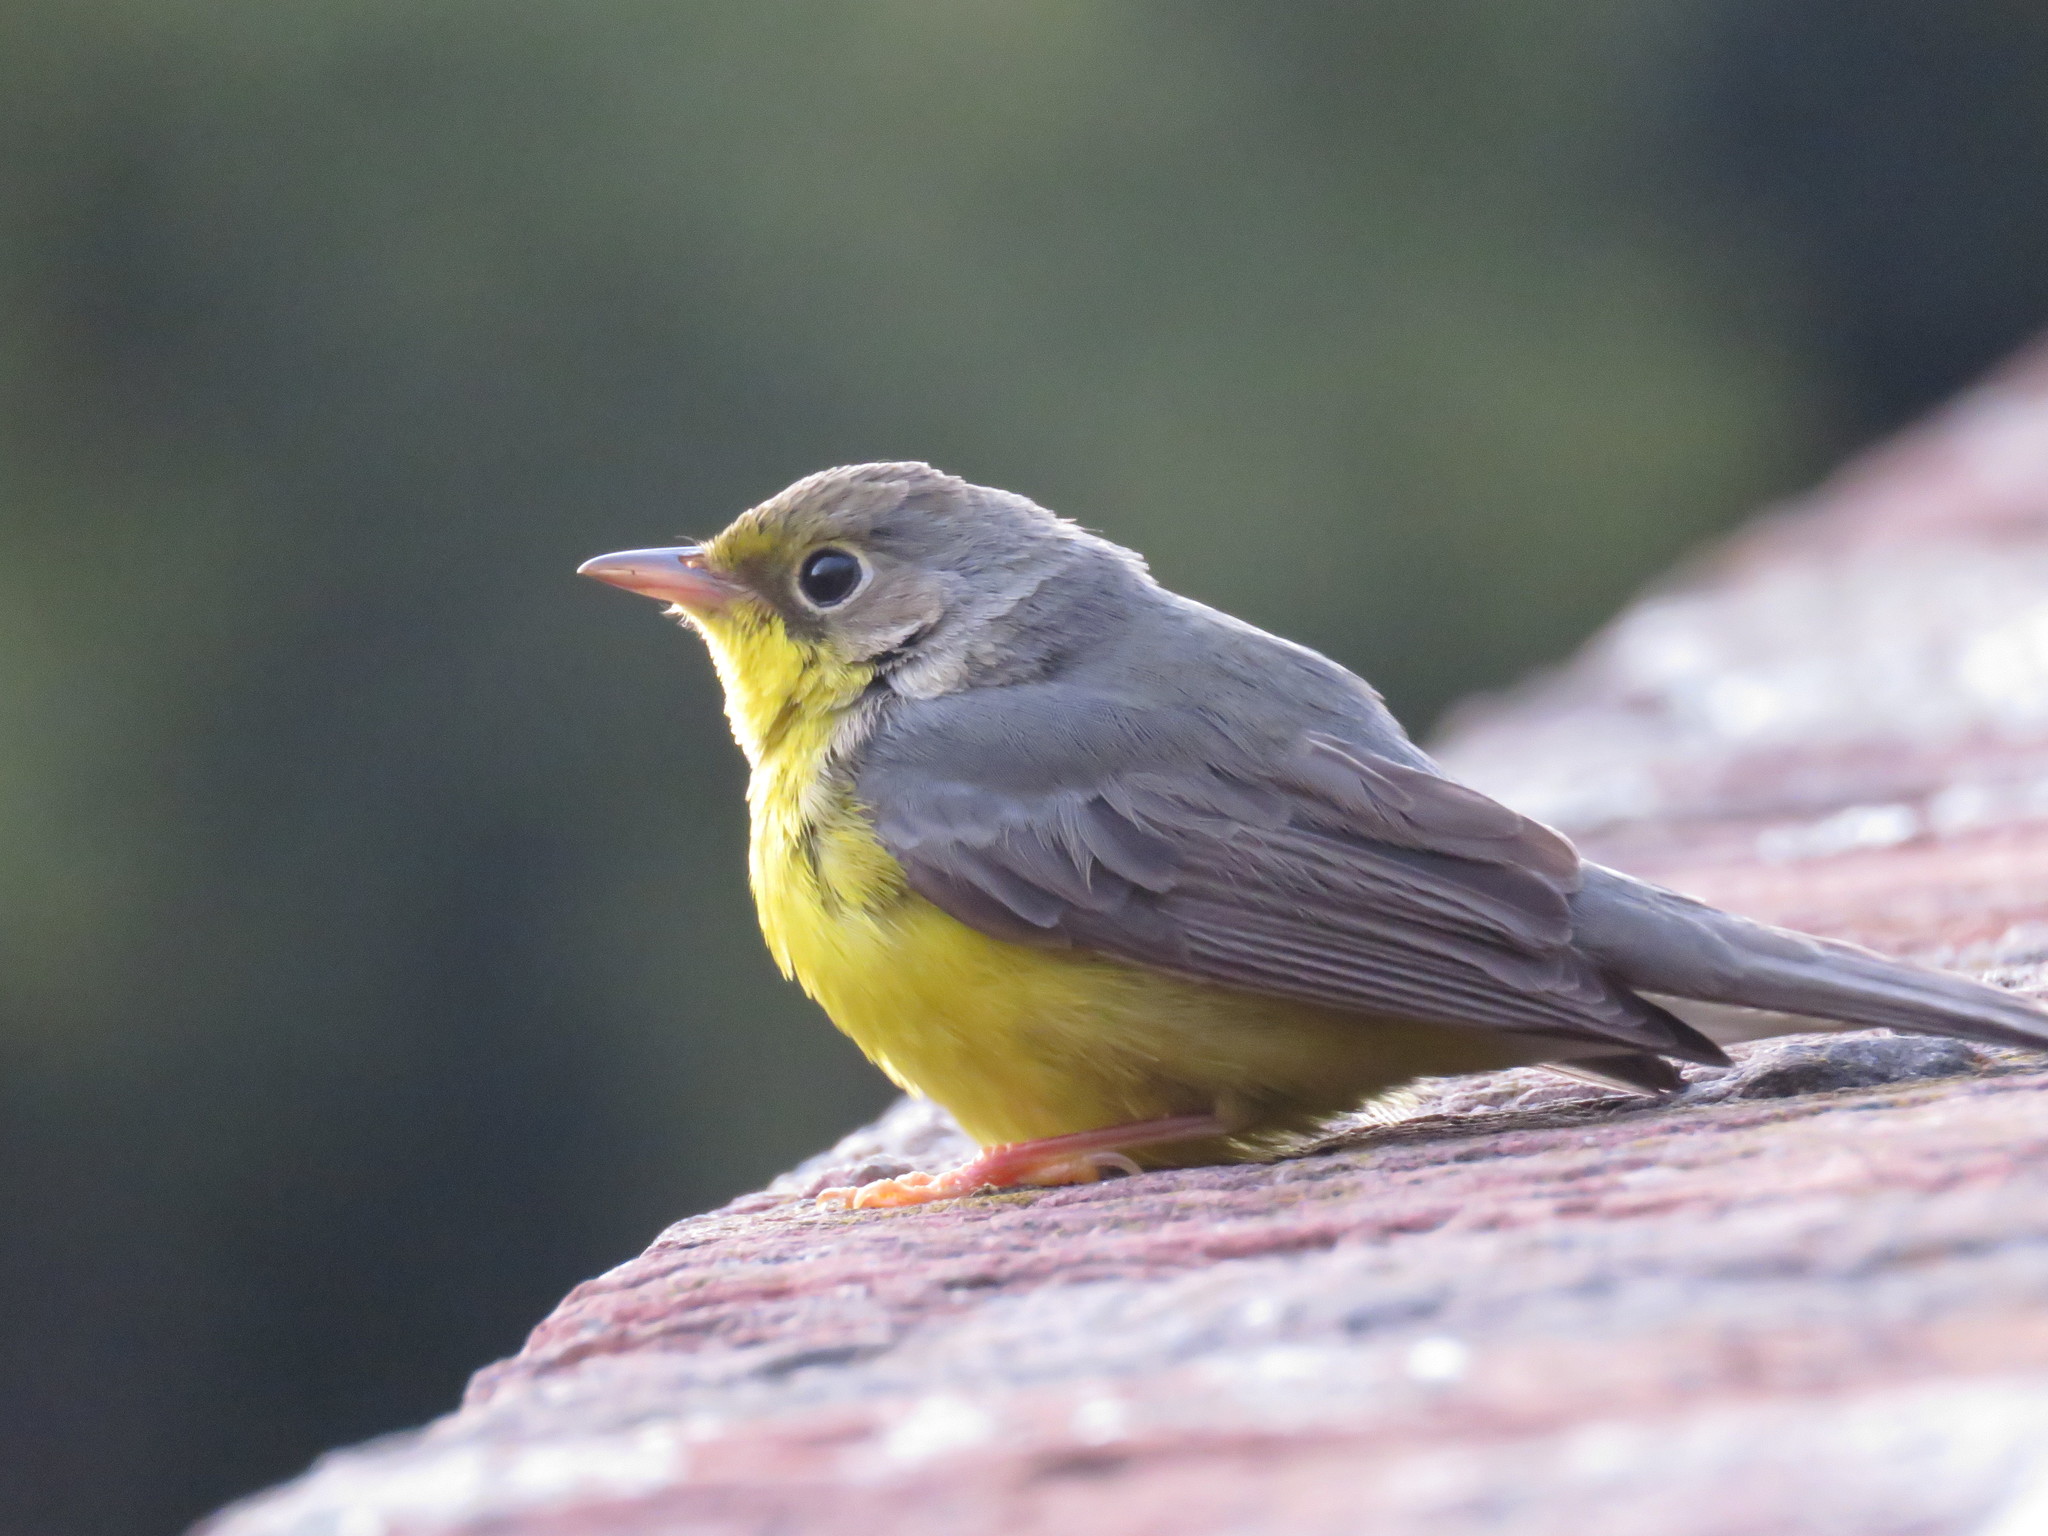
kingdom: Animalia
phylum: Chordata
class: Aves
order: Passeriformes
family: Parulidae
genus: Cardellina
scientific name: Cardellina canadensis
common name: Canada warbler
